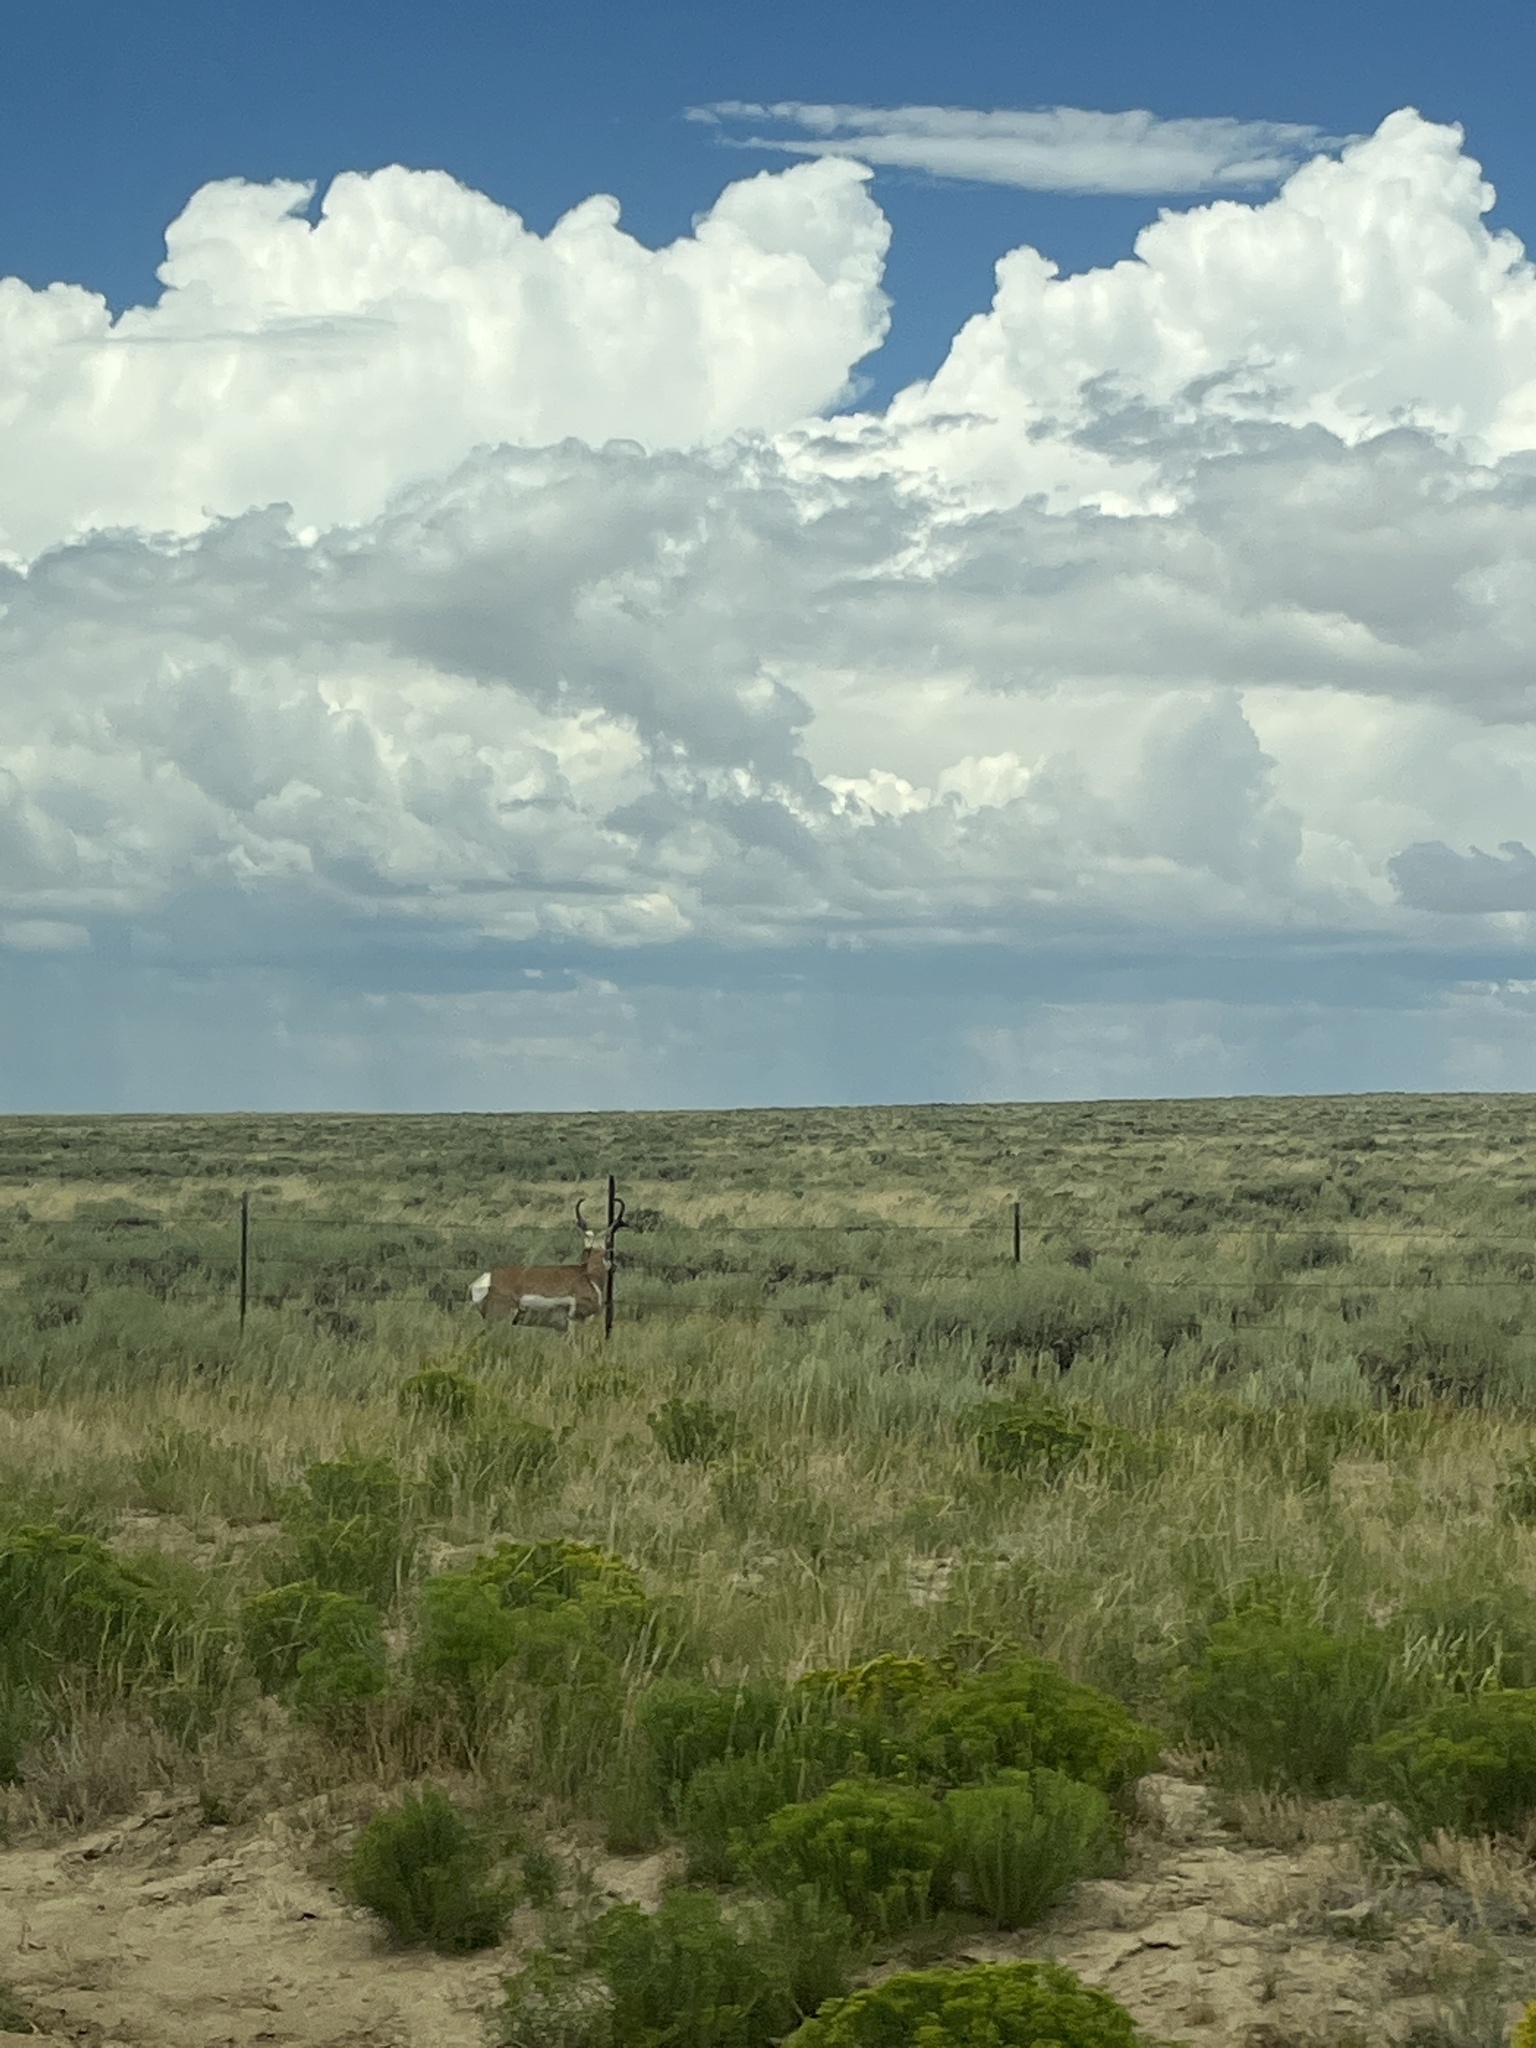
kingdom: Animalia
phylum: Chordata
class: Mammalia
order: Artiodactyla
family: Antilocapridae
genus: Antilocapra
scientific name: Antilocapra americana
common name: Pronghorn
